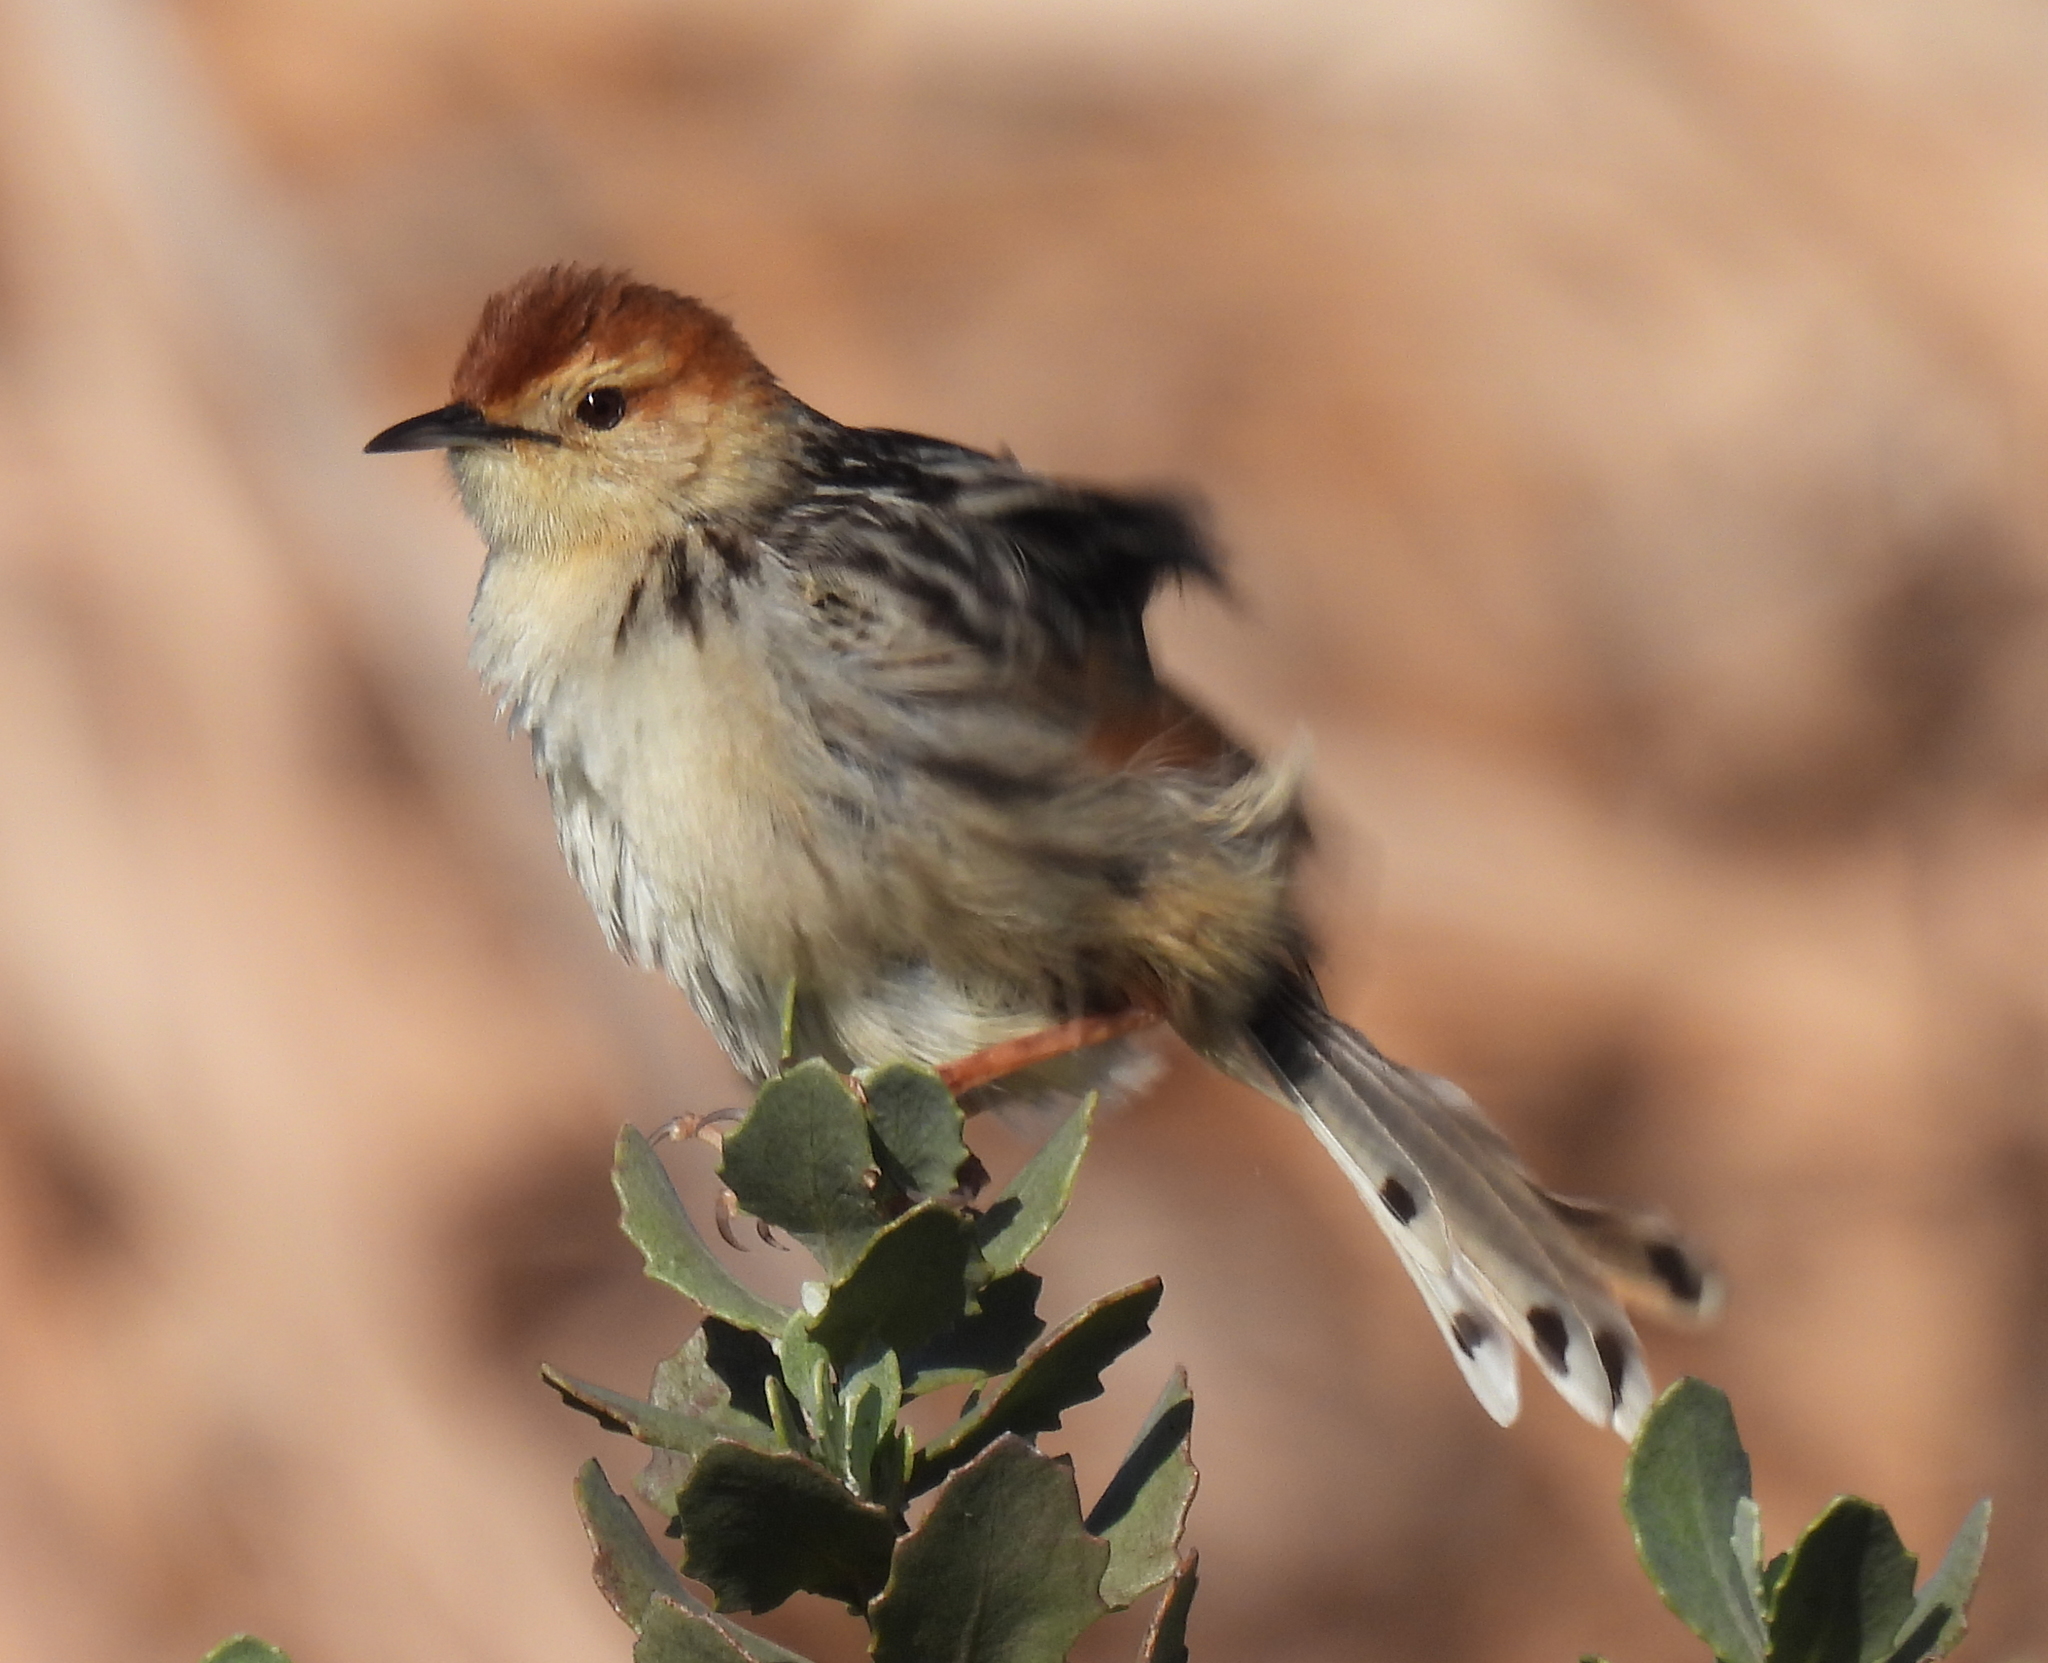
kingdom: Animalia
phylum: Chordata
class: Aves
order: Passeriformes
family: Cisticolidae
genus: Cisticola
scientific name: Cisticola tinniens
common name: Levaillant's cisticola
